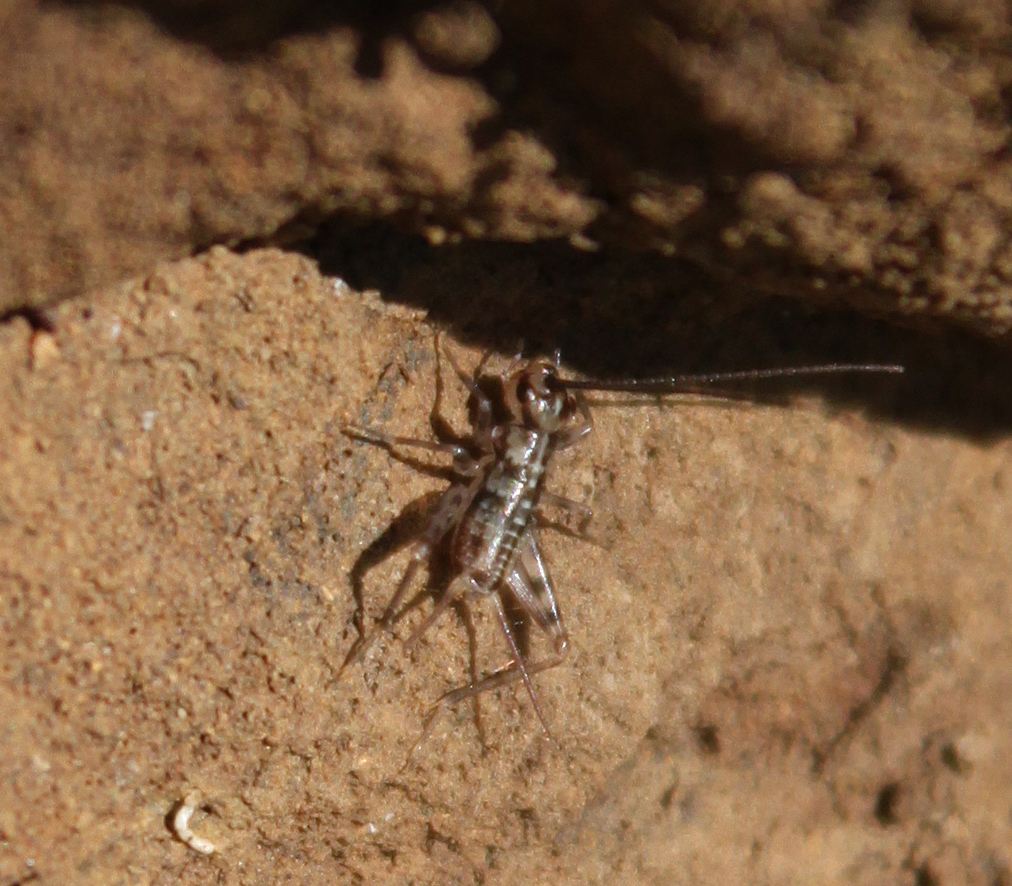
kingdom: Animalia
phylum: Arthropoda
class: Insecta
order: Orthoptera
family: Gryllidae
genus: Gryllomorpha
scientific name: Gryllomorpha dalmatina
